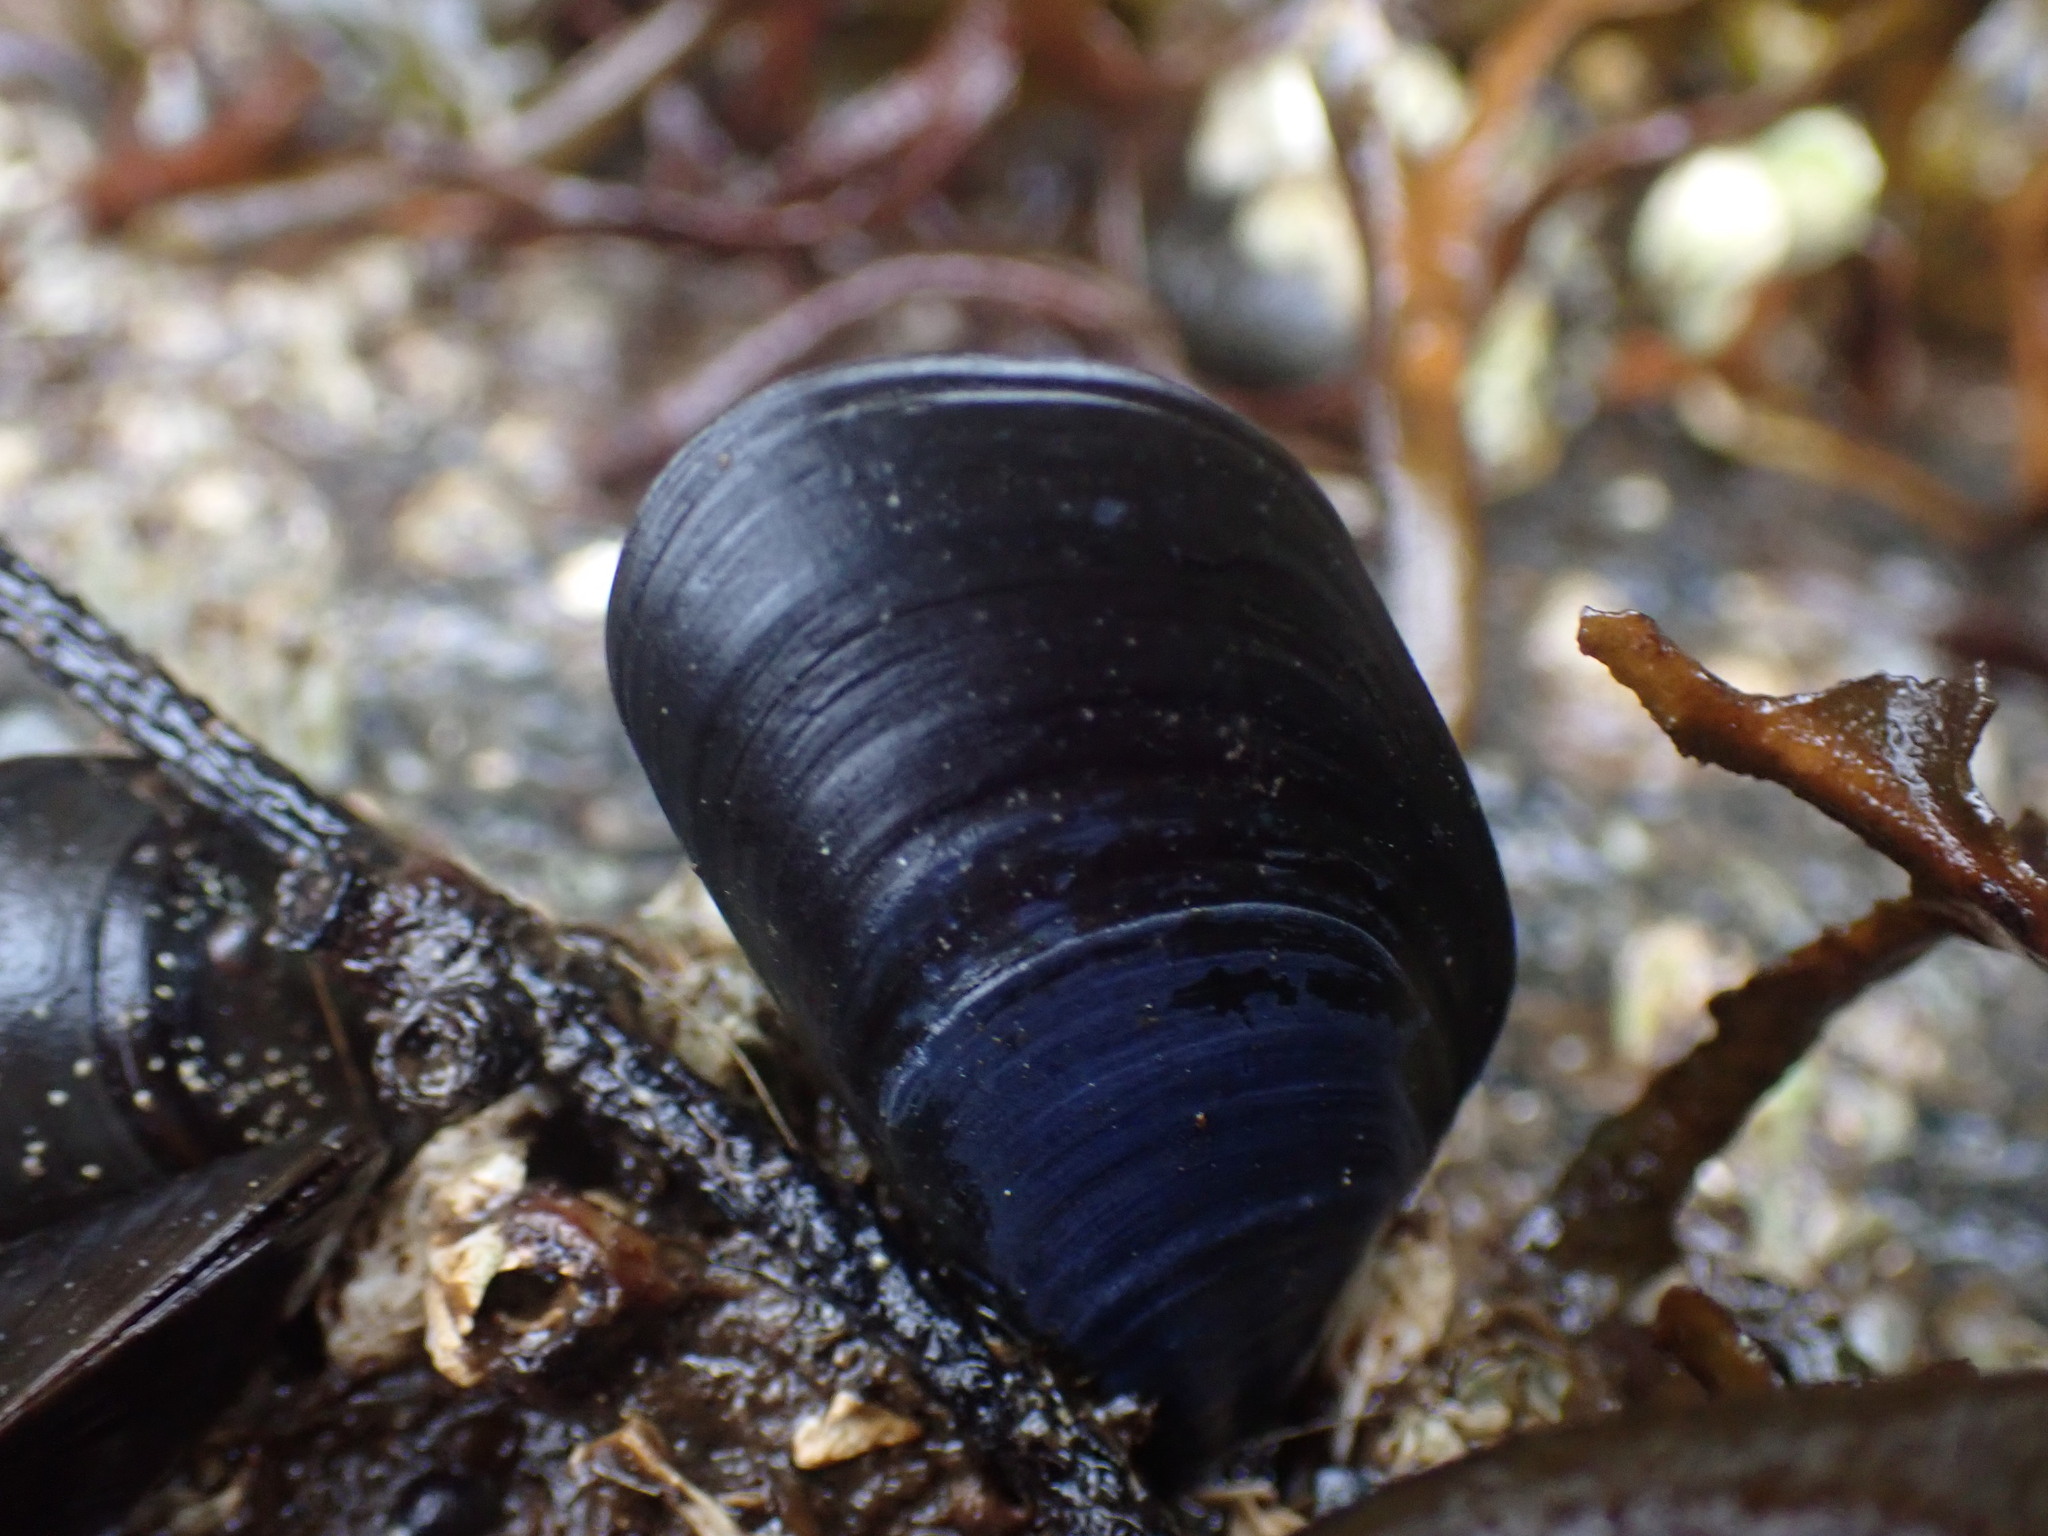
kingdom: Animalia
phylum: Mollusca
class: Bivalvia
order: Mytilida
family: Mytilidae
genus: Mytilus
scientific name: Mytilus trossulus
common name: Northern blue mussel
